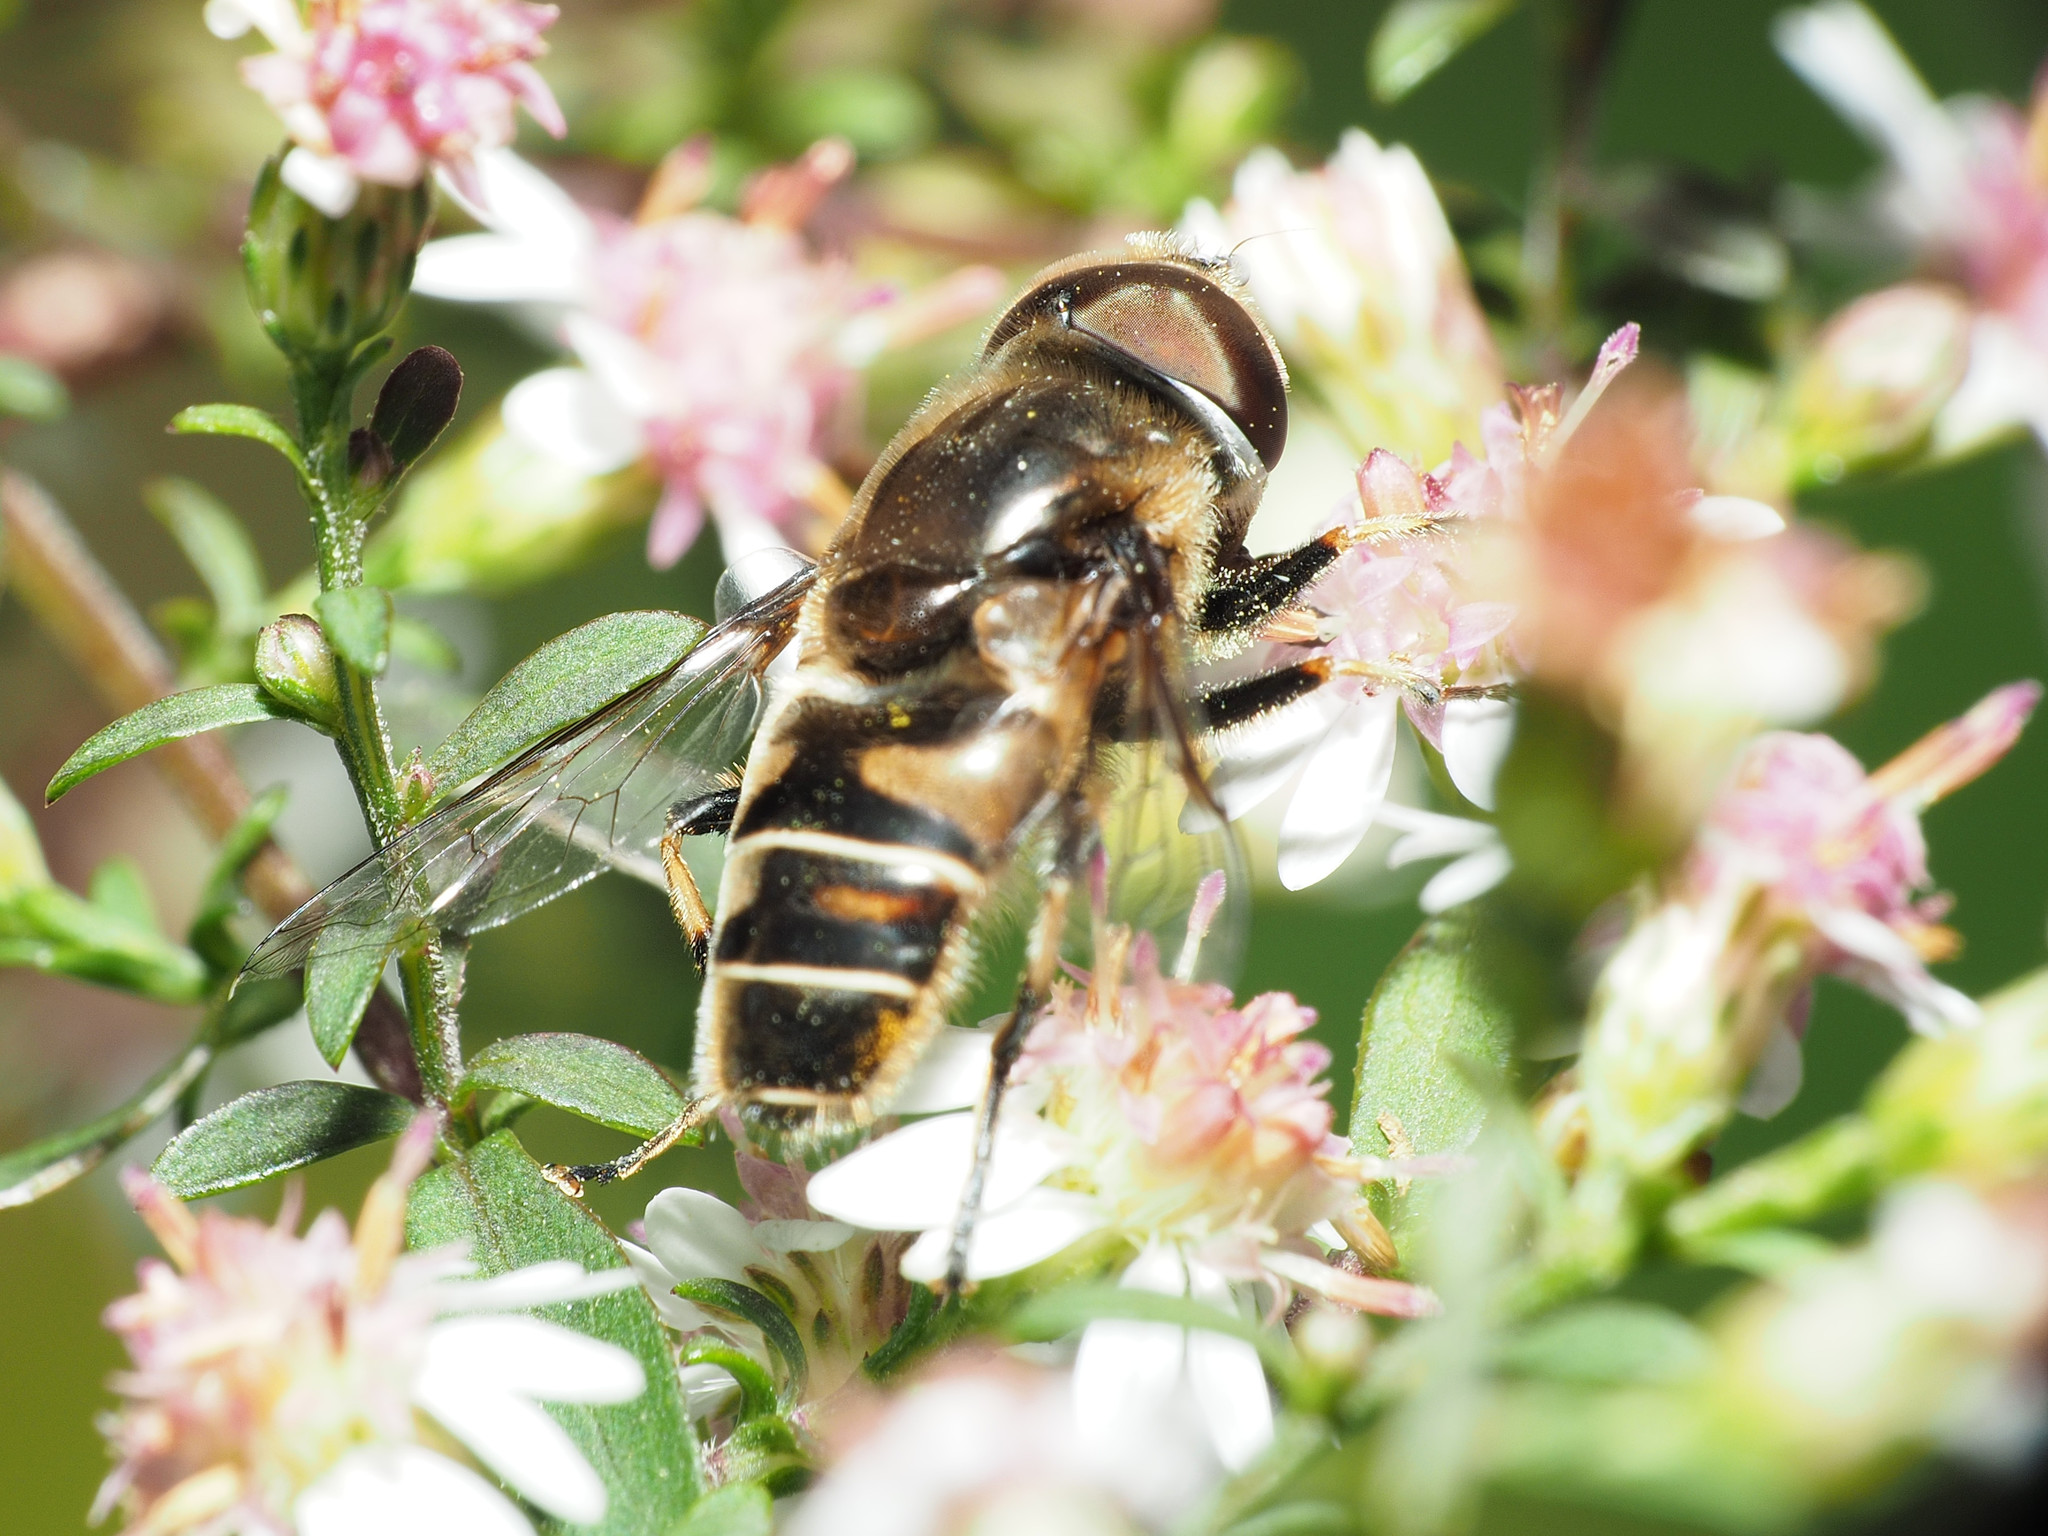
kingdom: Animalia
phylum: Arthropoda
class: Insecta
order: Diptera
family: Syrphidae
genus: Eristalis
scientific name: Eristalis dimidiata
